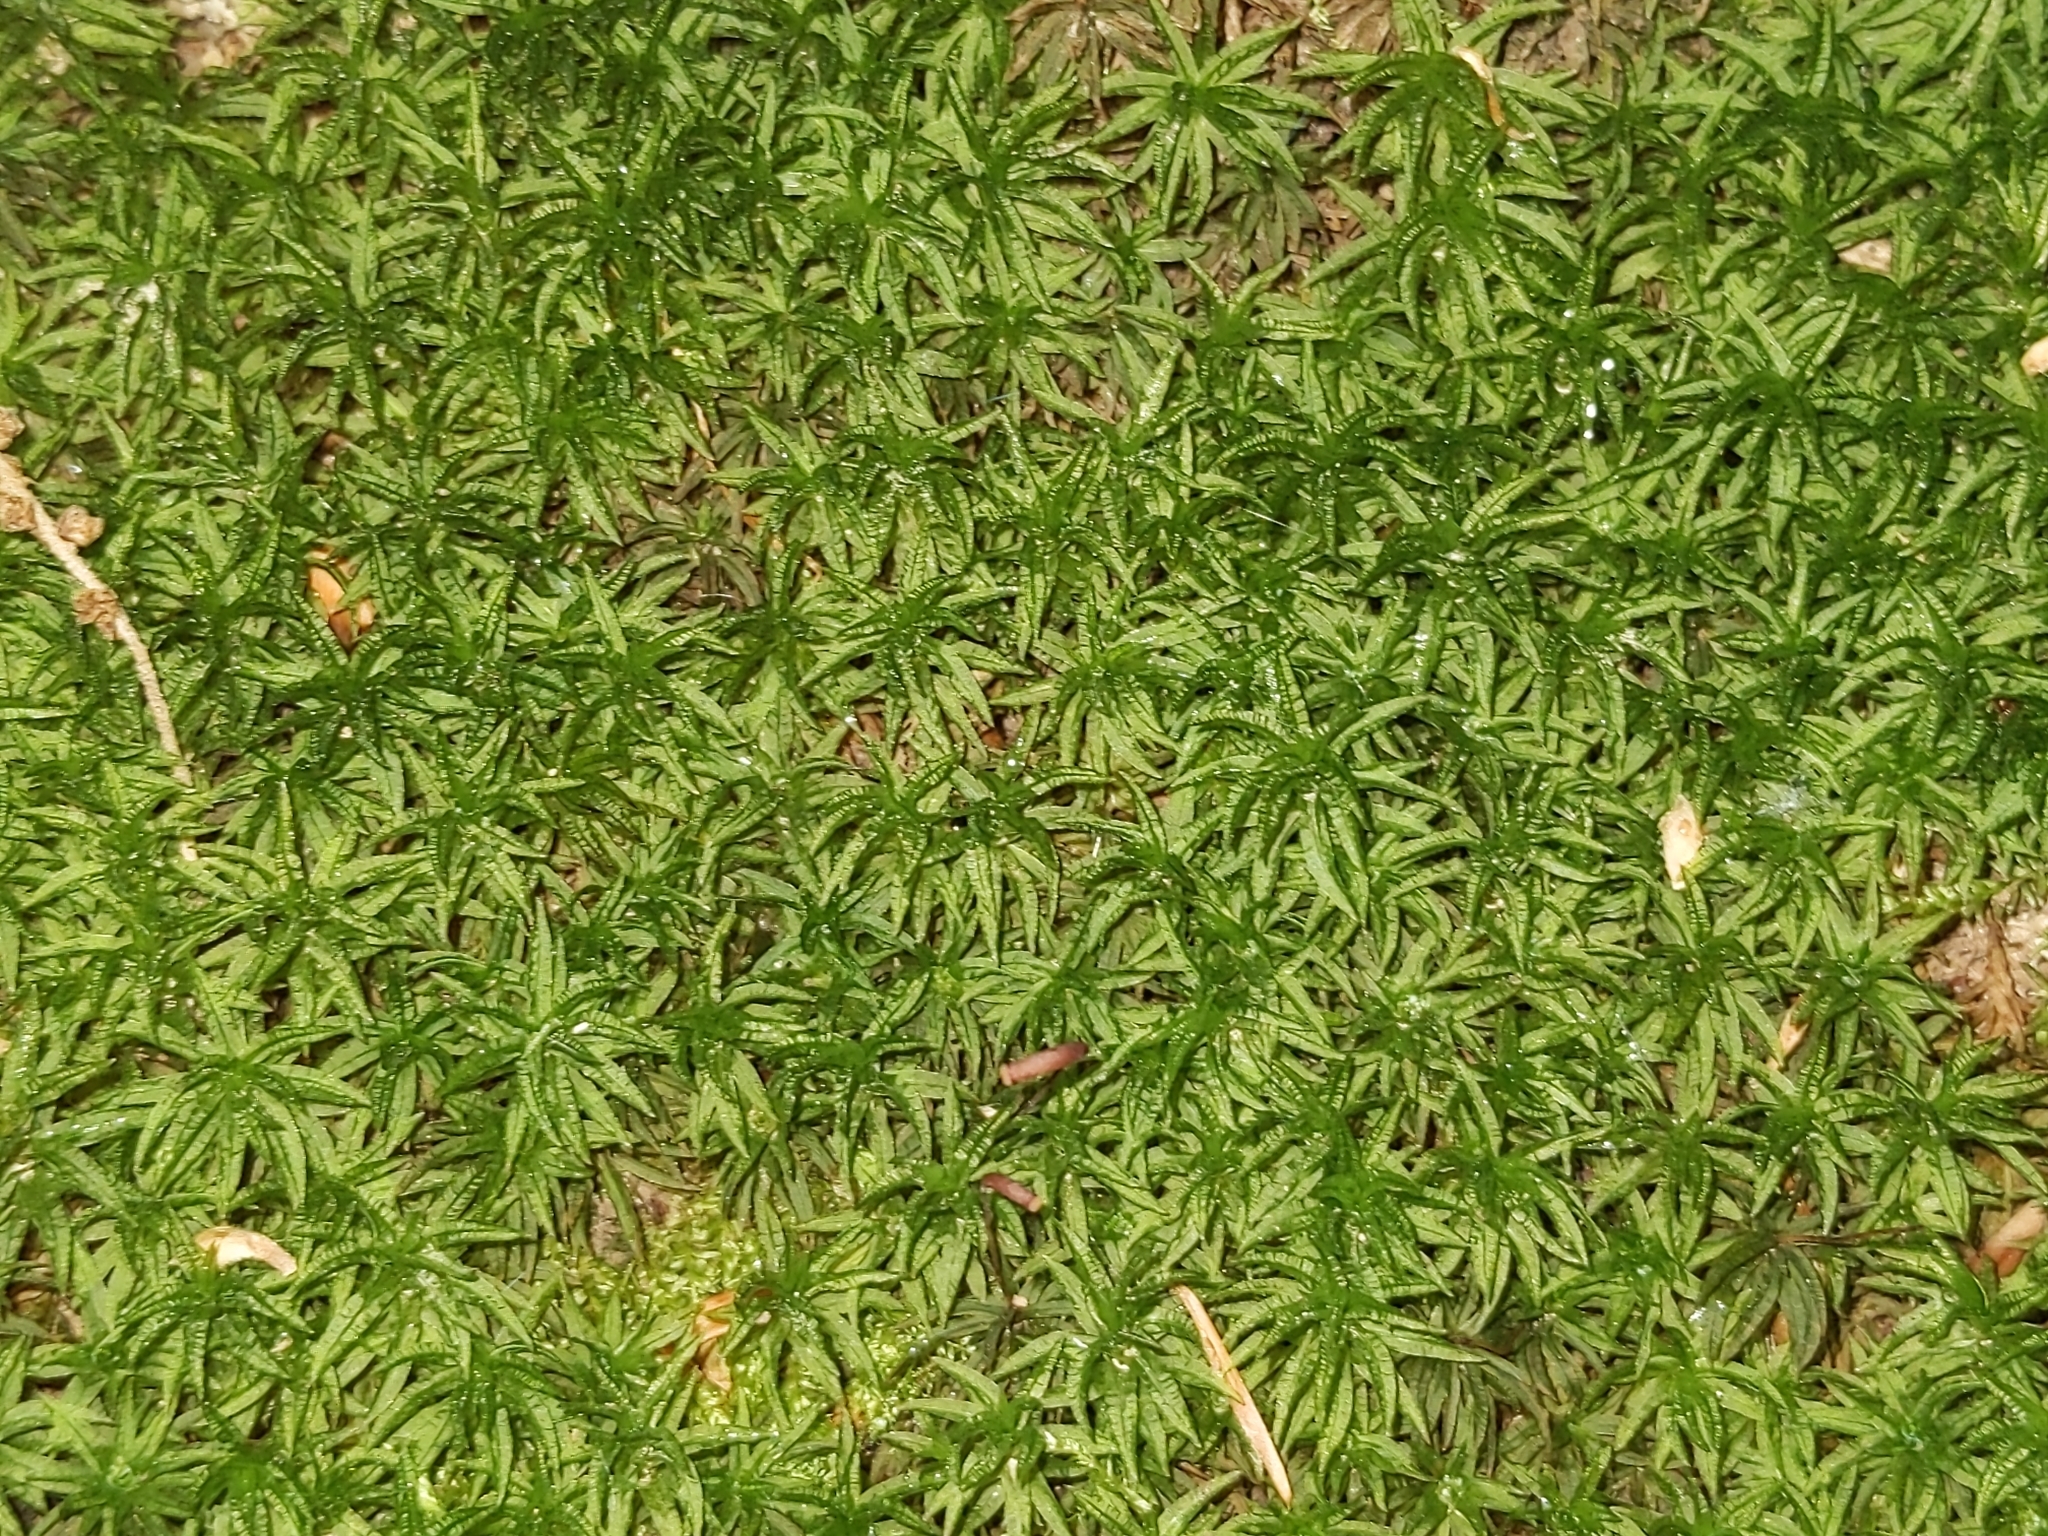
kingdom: Plantae
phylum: Bryophyta
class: Polytrichopsida
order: Polytrichales
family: Polytrichaceae
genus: Atrichum
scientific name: Atrichum undulatum
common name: Common smoothcap
